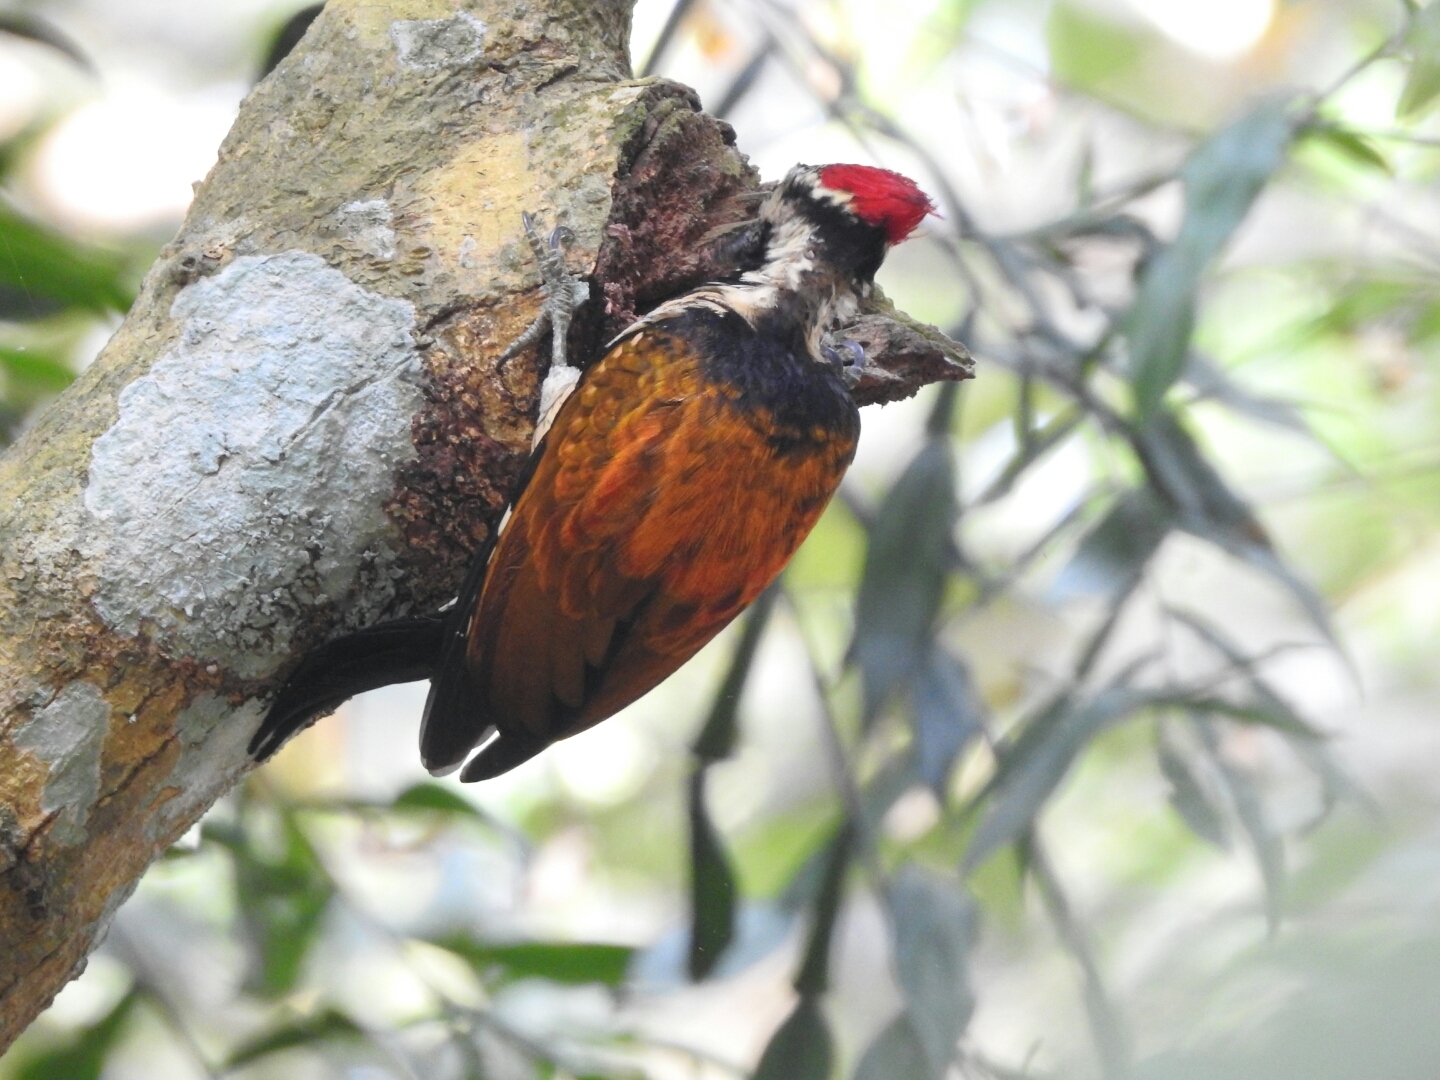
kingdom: Animalia
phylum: Chordata
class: Aves
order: Piciformes
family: Picidae
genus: Dinopium
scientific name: Dinopium benghalense
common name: Black-rumped flameback
